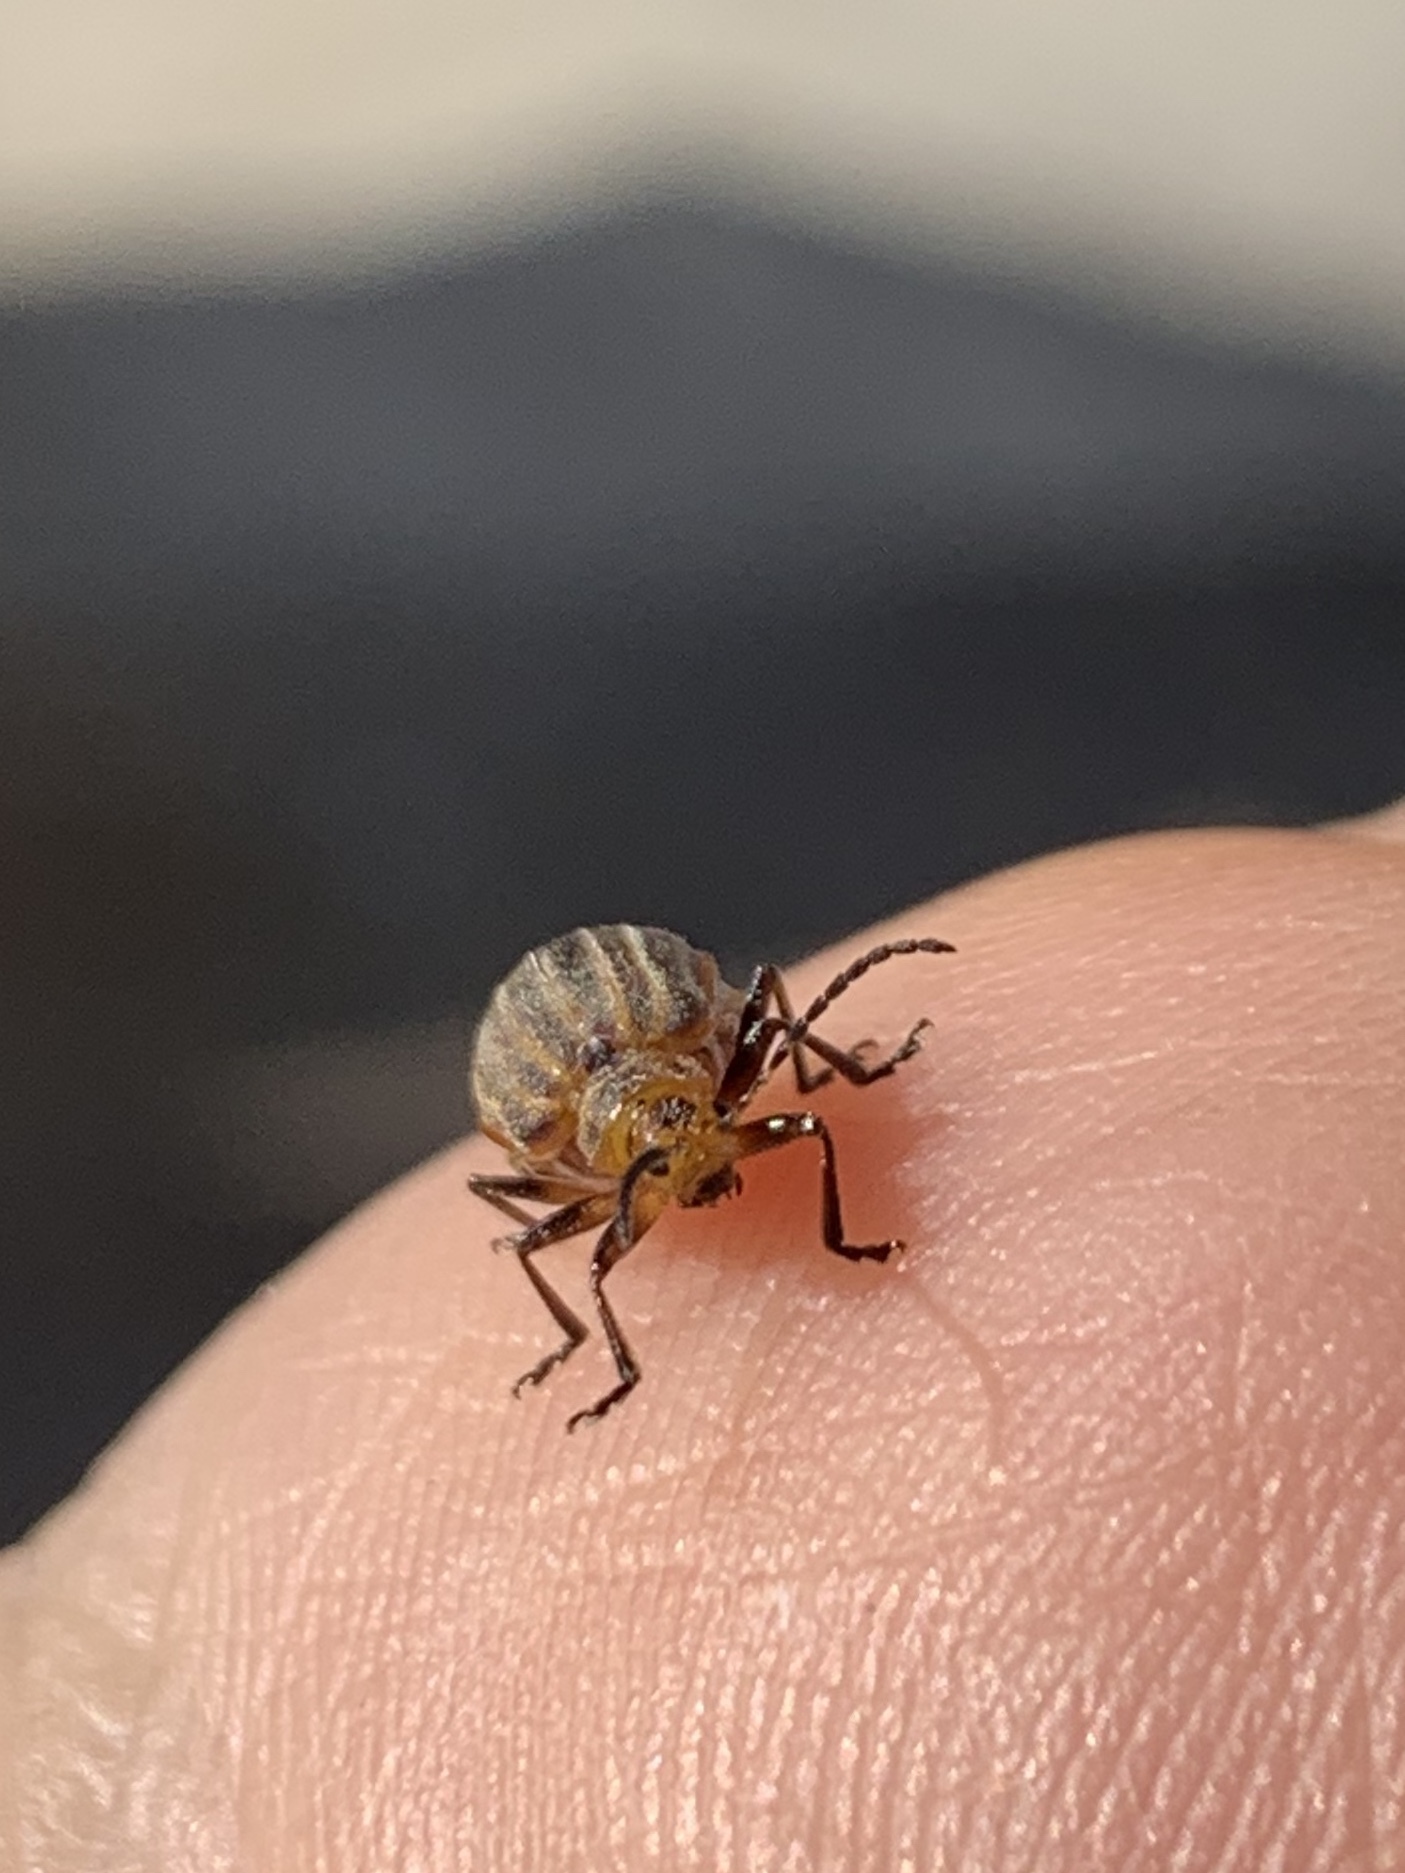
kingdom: Animalia
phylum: Arthropoda
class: Insecta
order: Coleoptera
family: Chrysomelidae
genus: Neolochmaea
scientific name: Neolochmaea dilatipennis
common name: Skeletonizing leaf beetle
